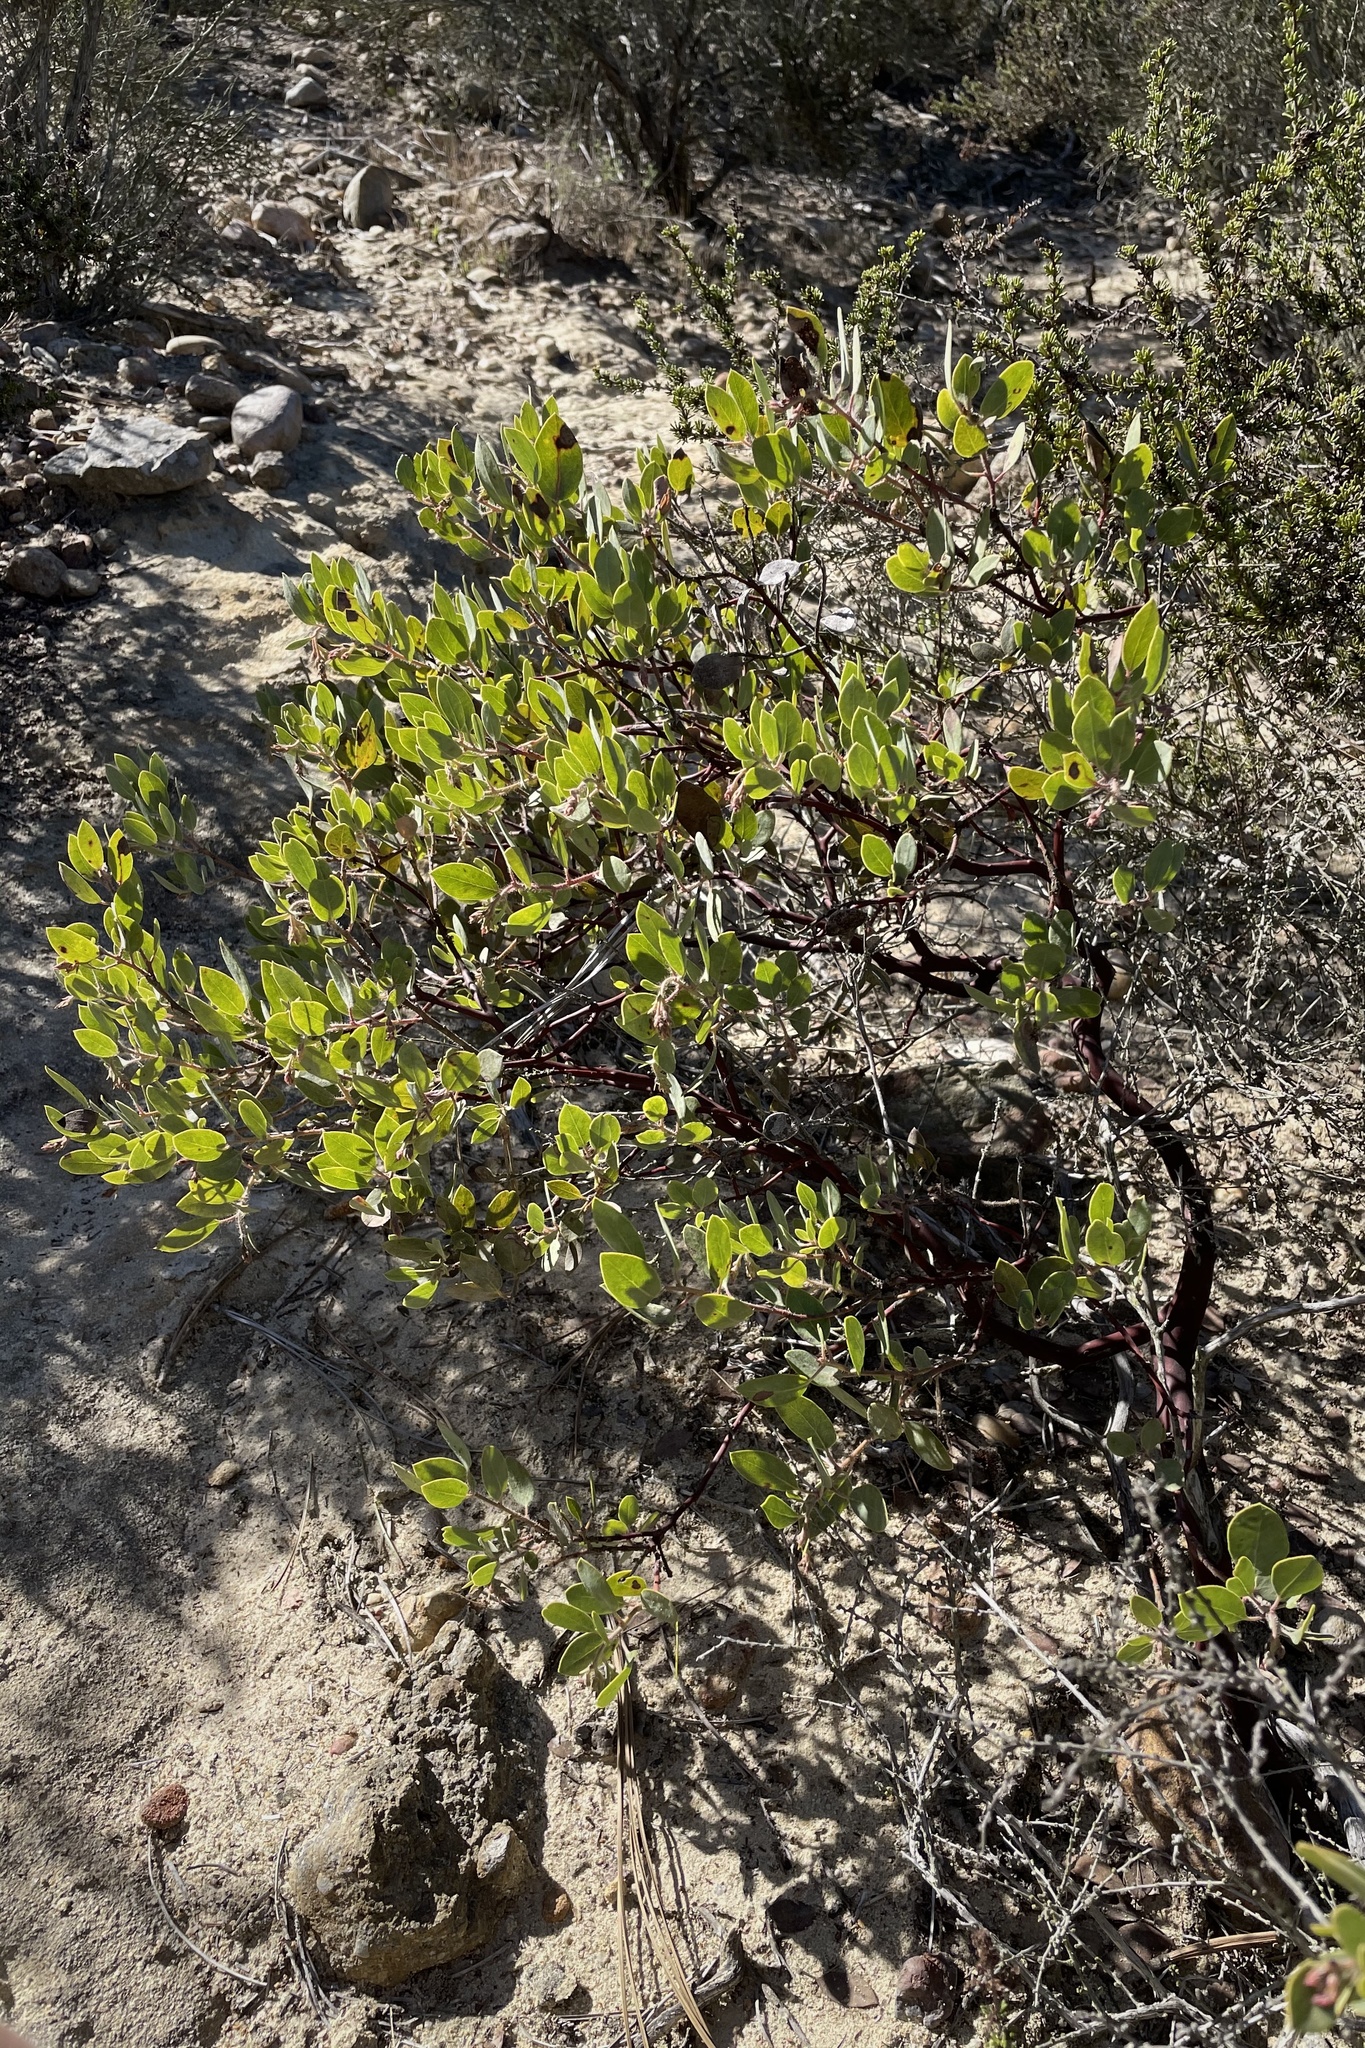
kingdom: Plantae
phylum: Tracheophyta
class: Magnoliopsida
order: Ericales
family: Ericaceae
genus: Arctostaphylos
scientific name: Arctostaphylos glandulosa
